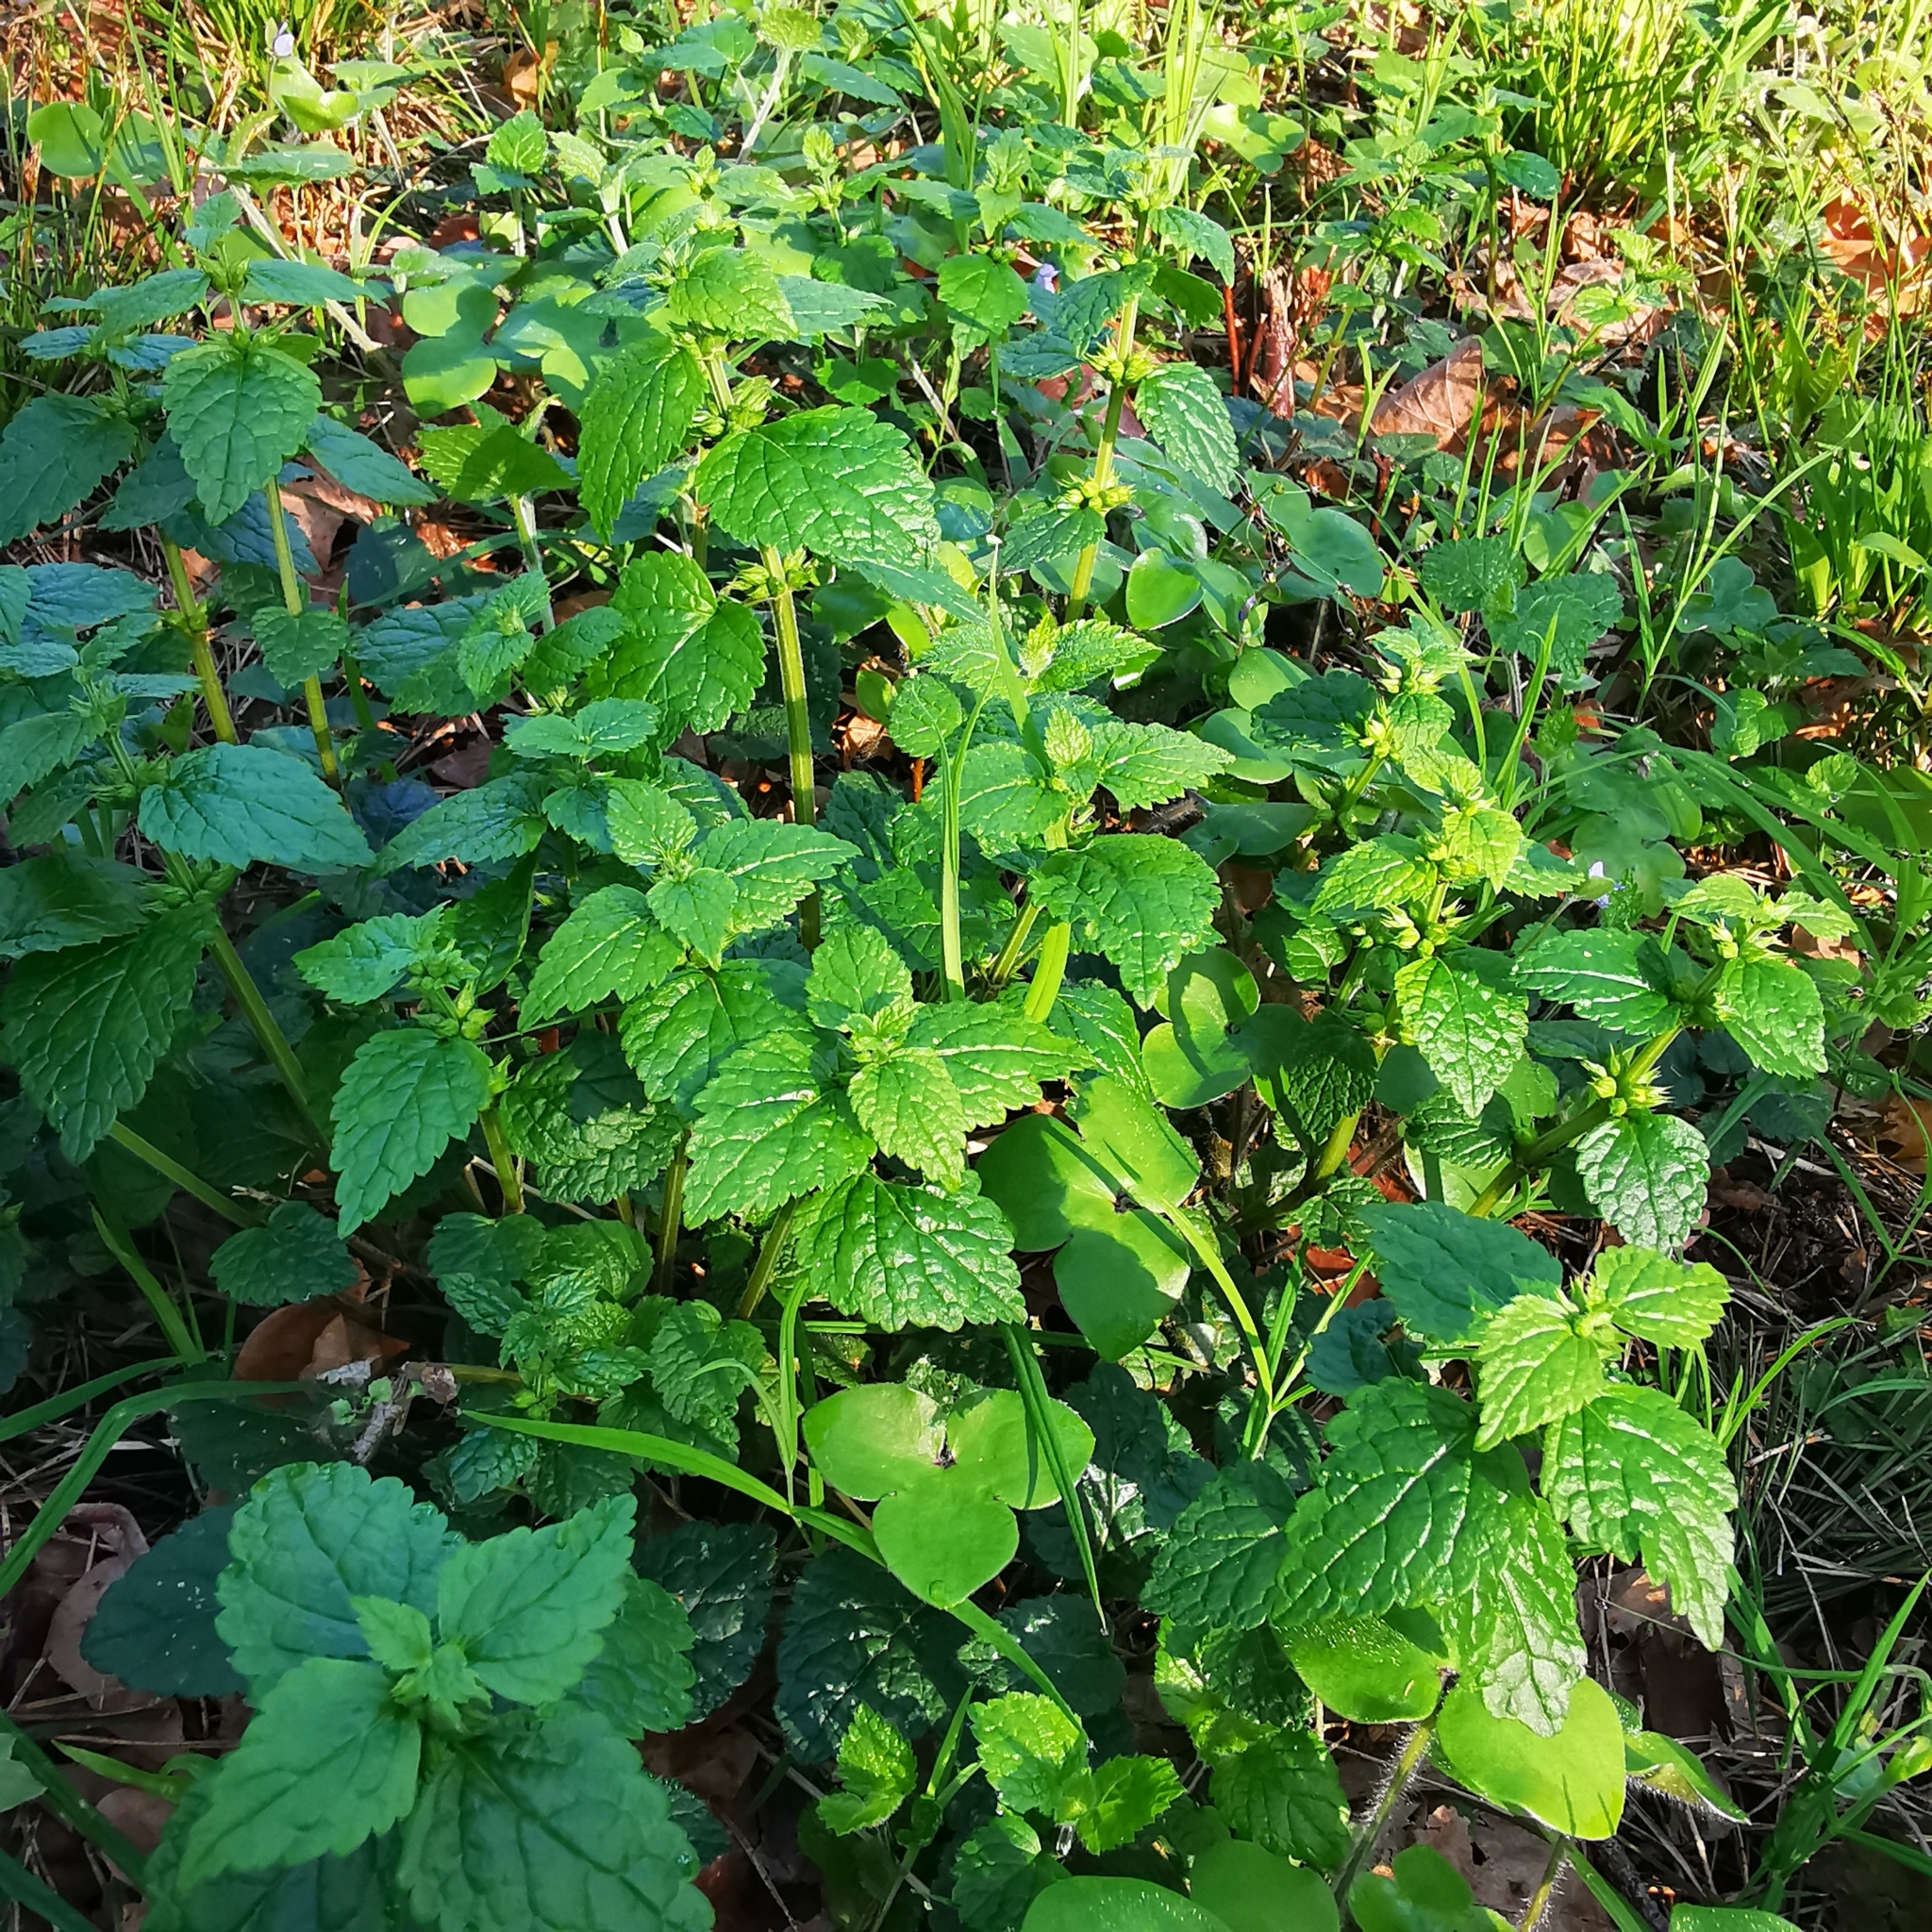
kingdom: Plantae
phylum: Tracheophyta
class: Magnoliopsida
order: Lamiales
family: Lamiaceae
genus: Lamium
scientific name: Lamium galeobdolon
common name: Yellow archangel
